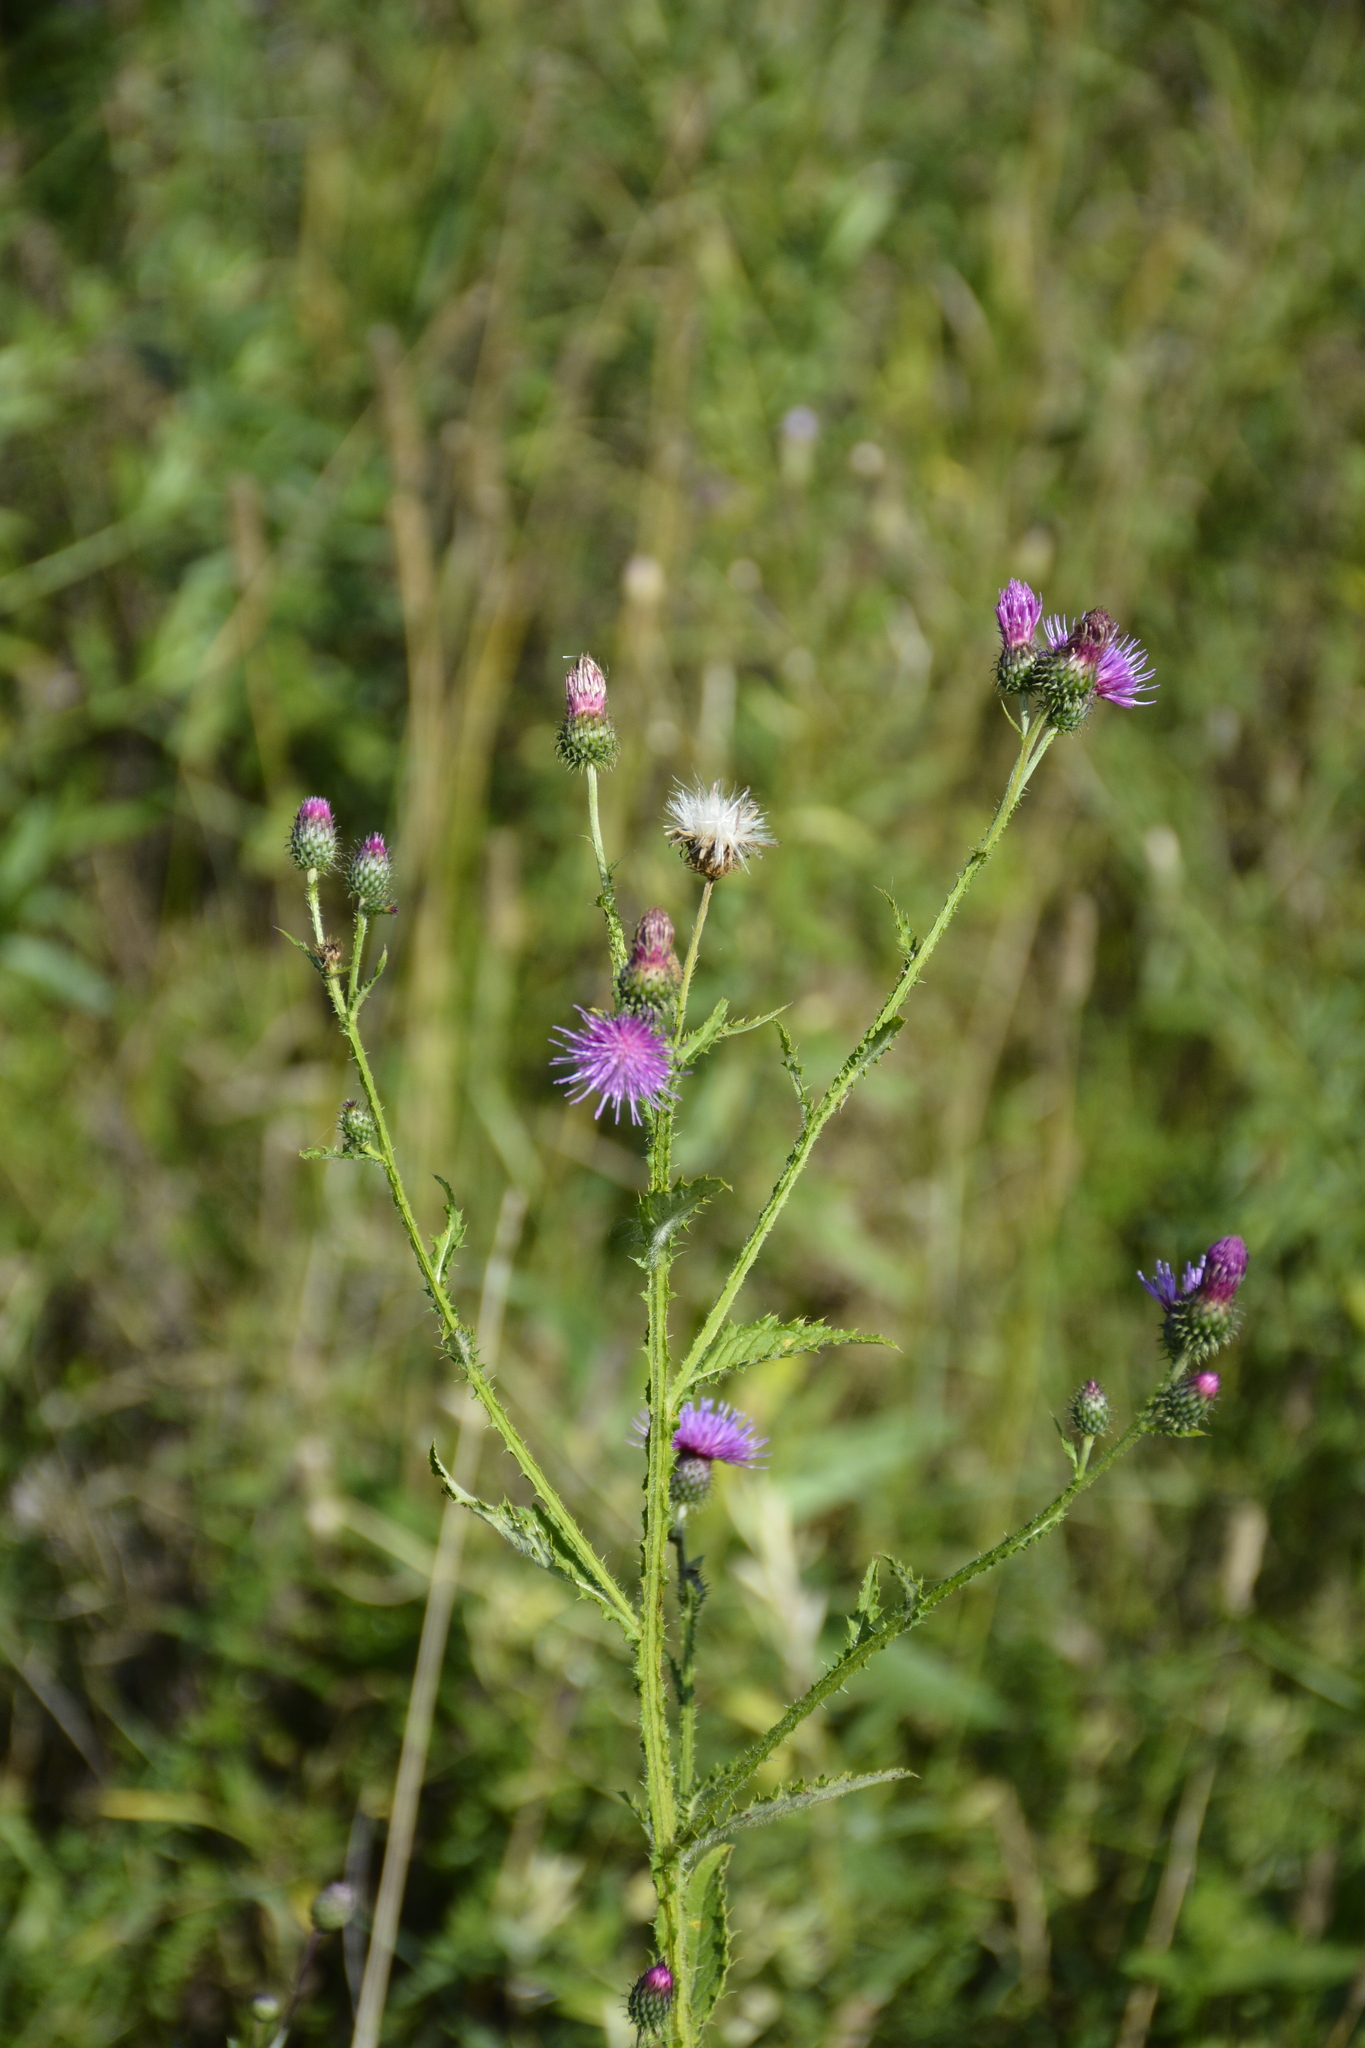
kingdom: Plantae
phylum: Tracheophyta
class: Magnoliopsida
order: Asterales
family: Asteraceae
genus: Carduus
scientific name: Carduus crispus
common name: Welted thistle
